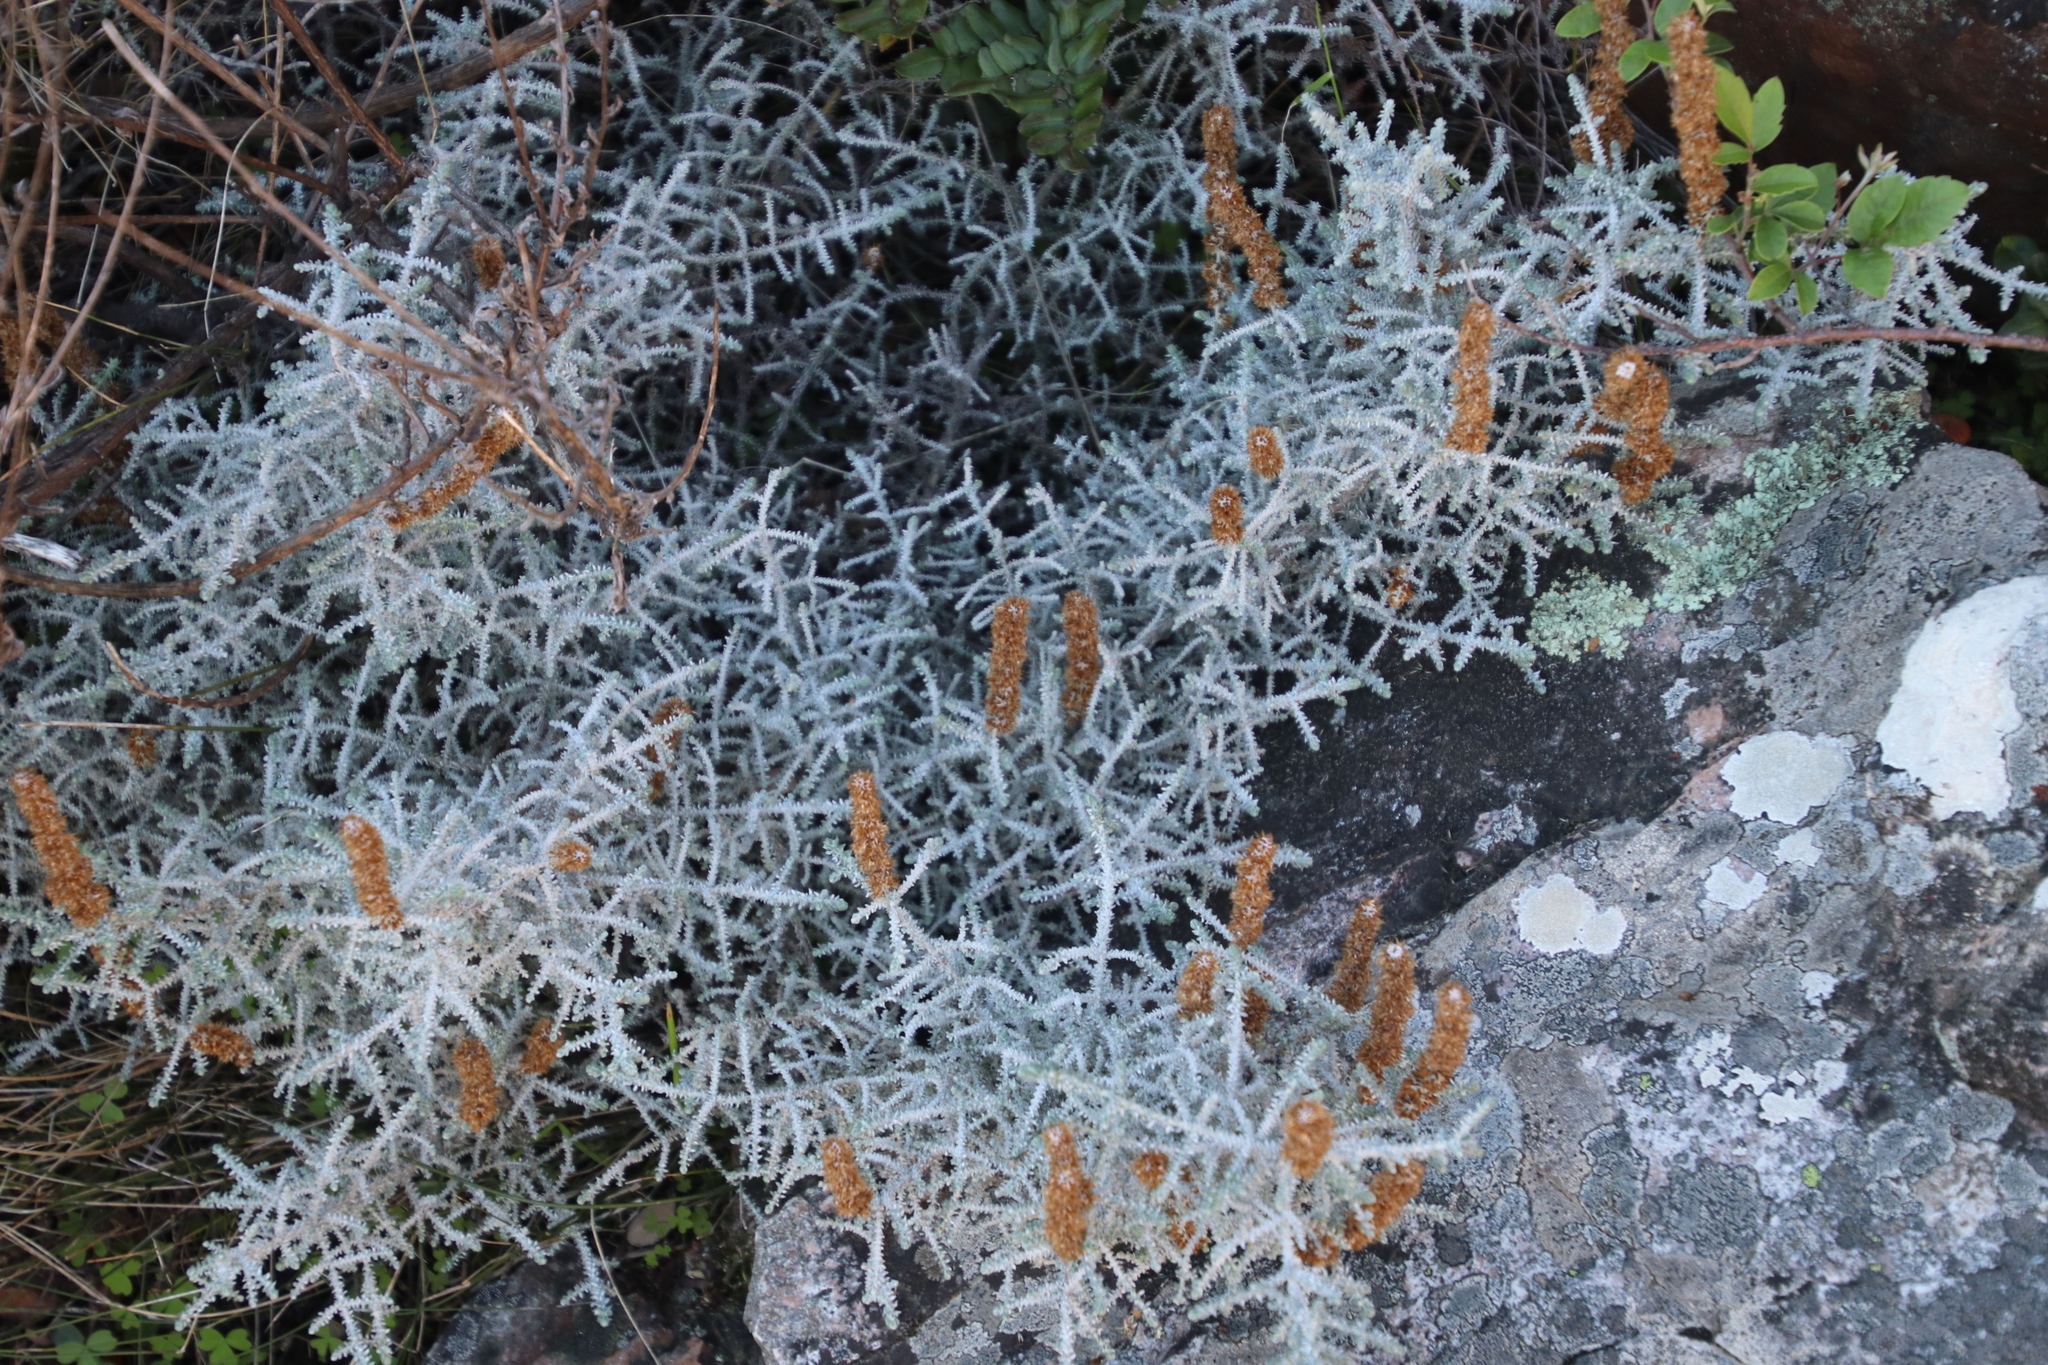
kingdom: Plantae
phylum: Tracheophyta
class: Magnoliopsida
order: Asterales
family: Asteraceae
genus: Seriphium
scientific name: Seriphium plumosum
